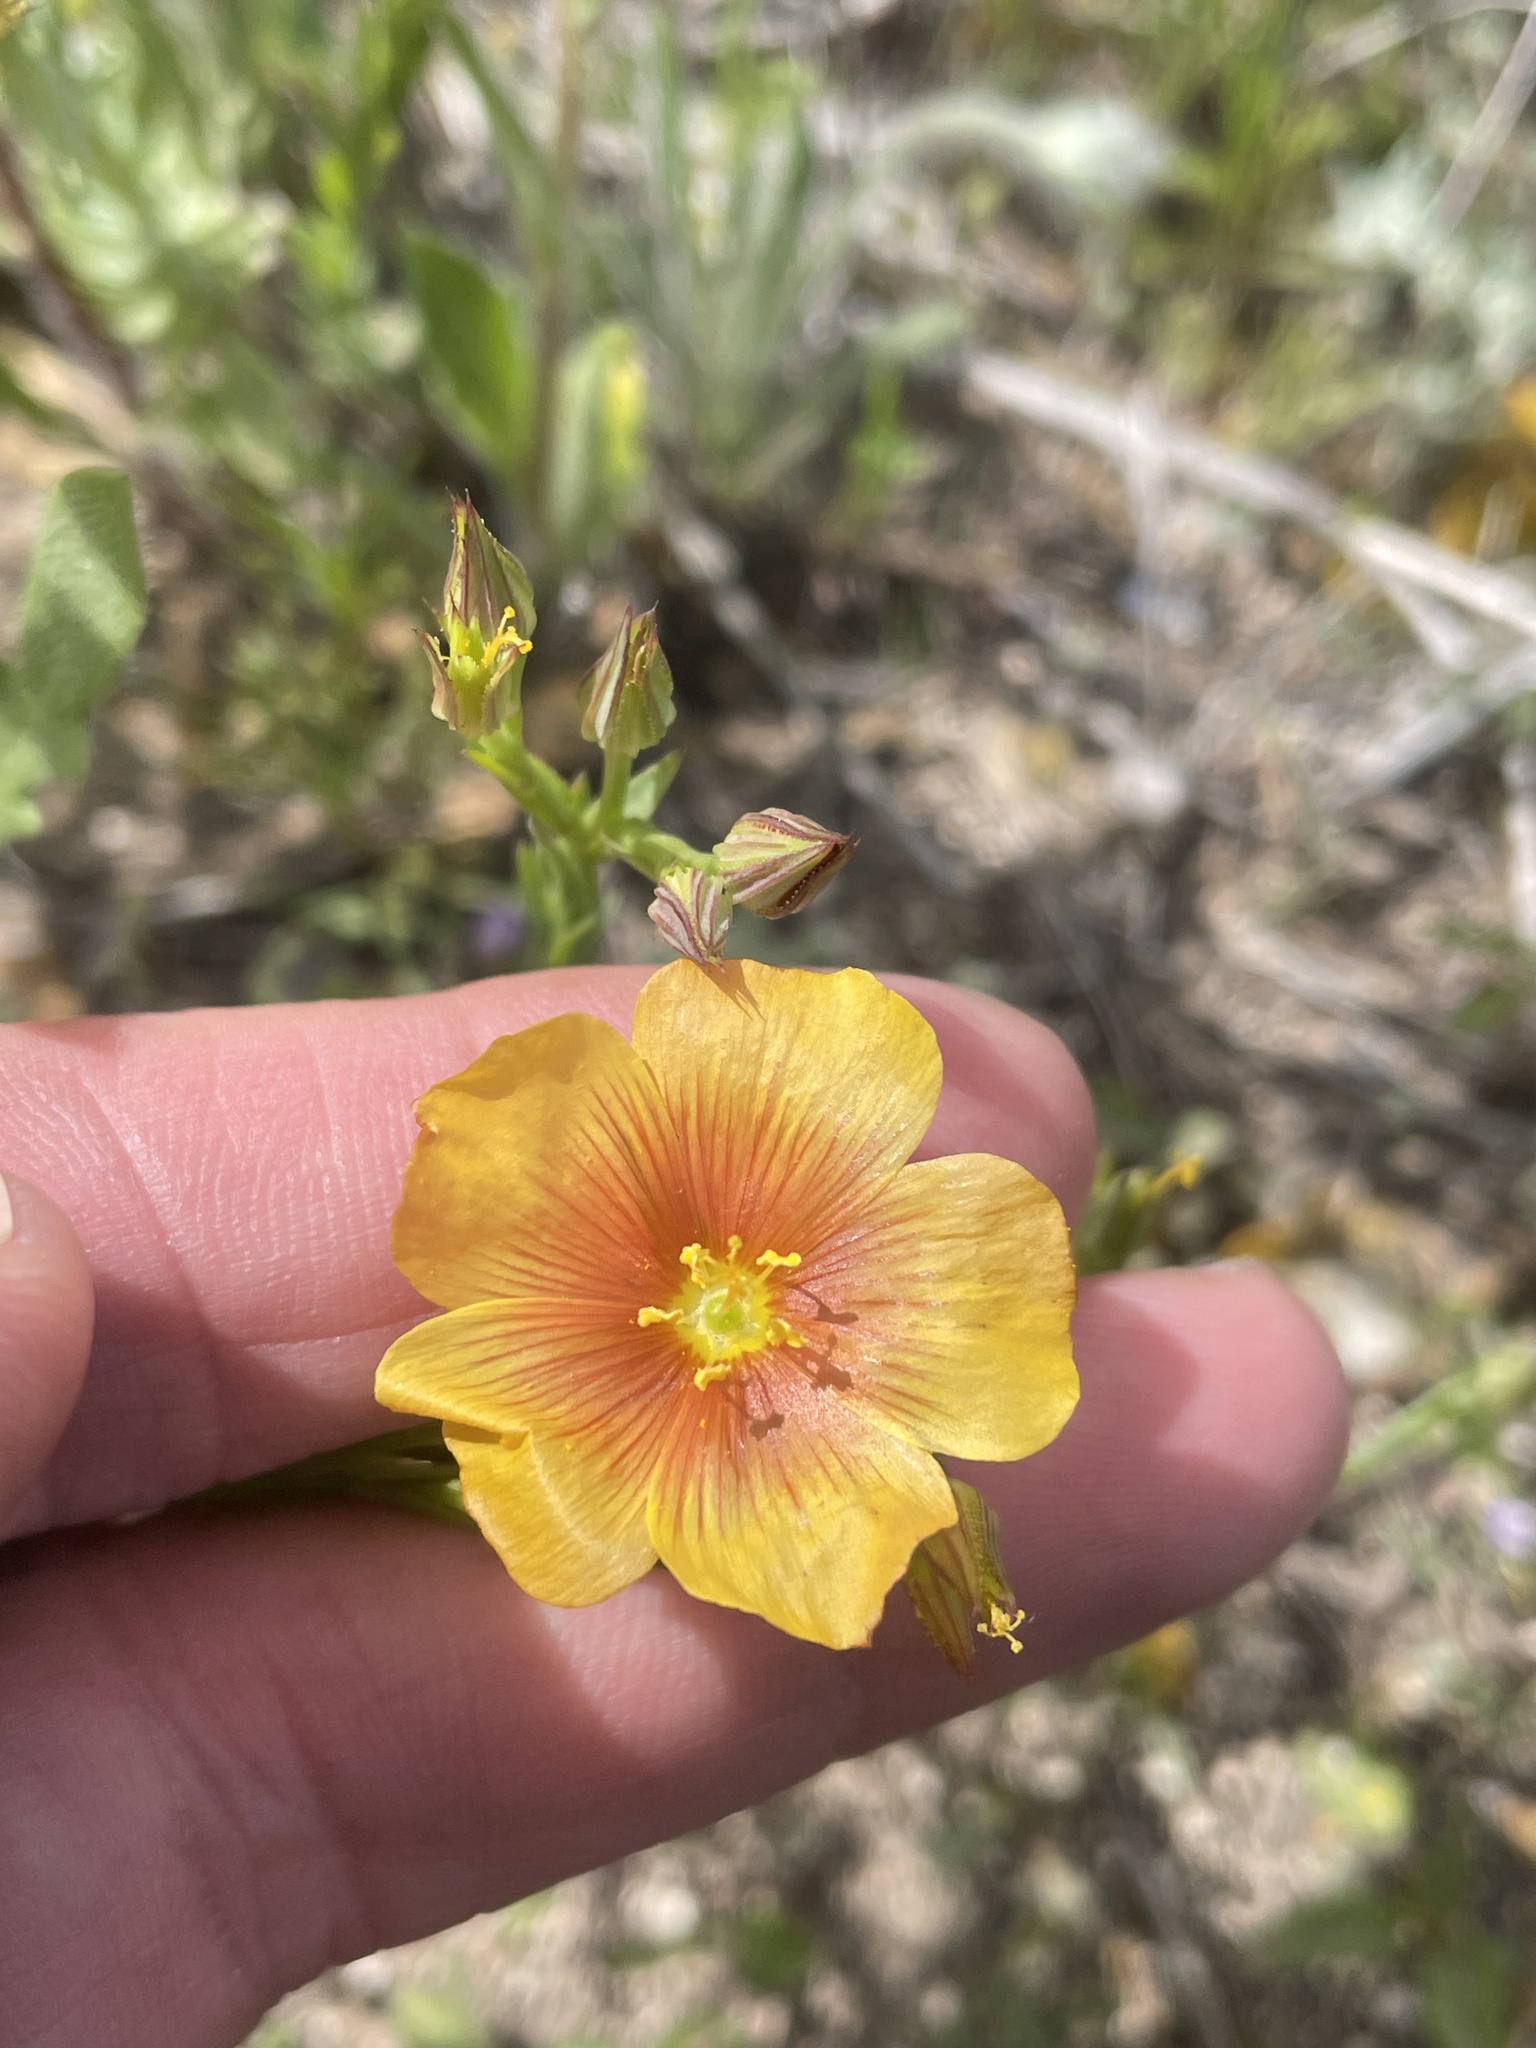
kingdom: Plantae
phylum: Tracheophyta
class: Magnoliopsida
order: Malpighiales
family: Linaceae
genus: Linum
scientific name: Linum berlandieri
